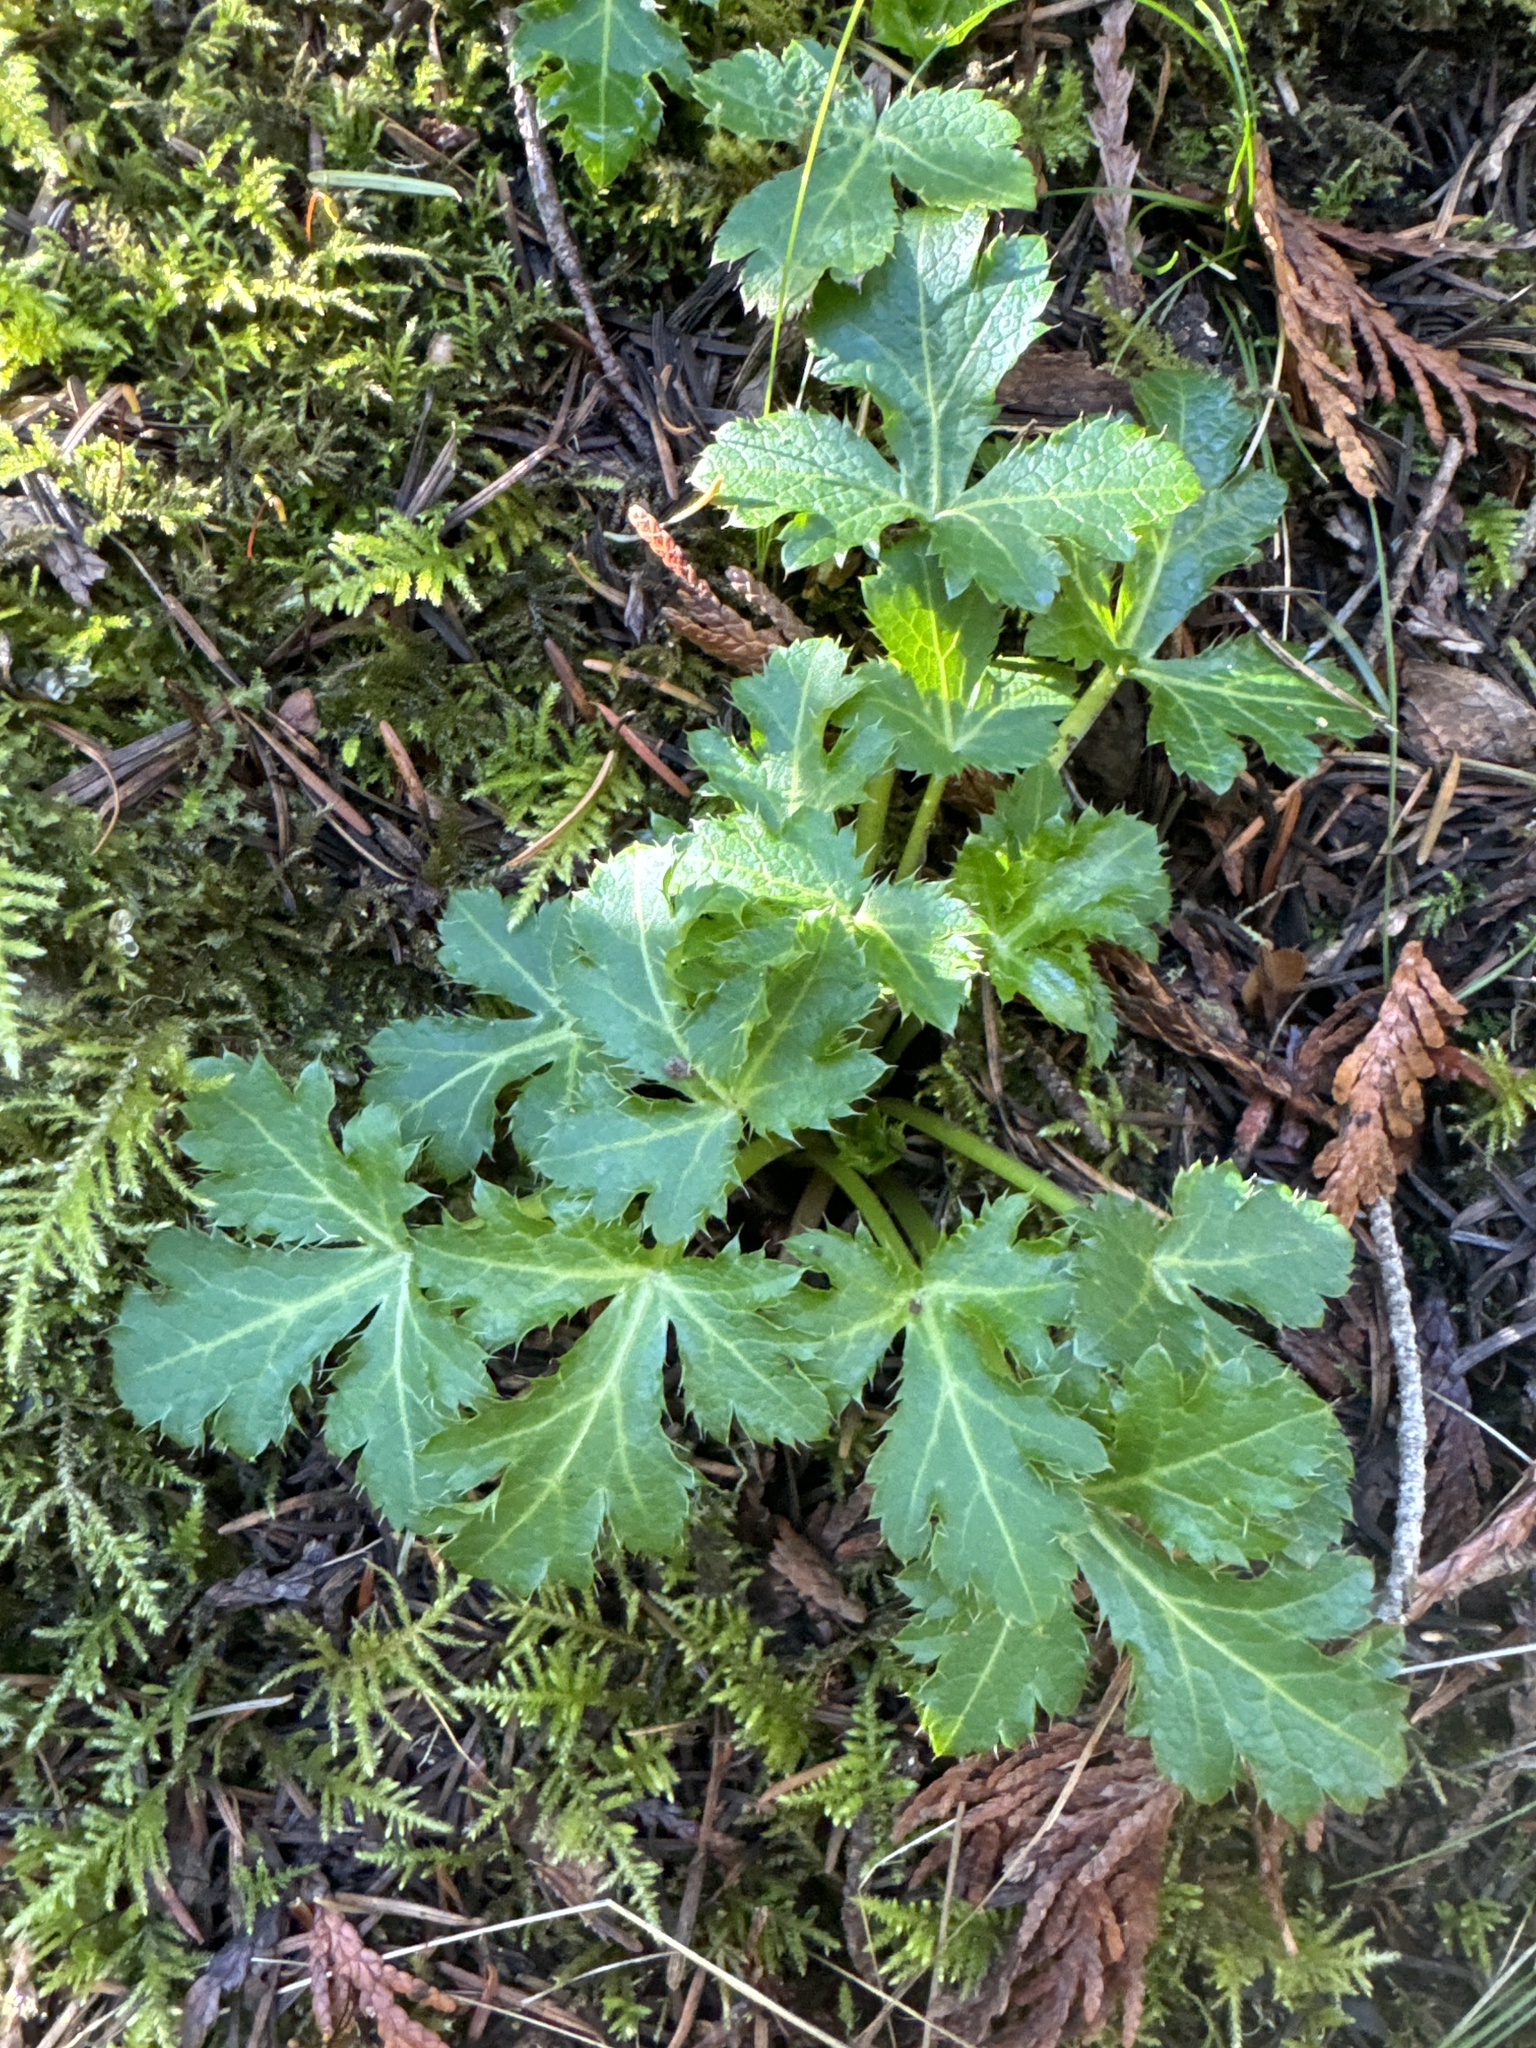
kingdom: Plantae
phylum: Tracheophyta
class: Magnoliopsida
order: Apiales
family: Apiaceae
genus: Sanicula
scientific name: Sanicula crassicaulis
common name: Western snakeroot
